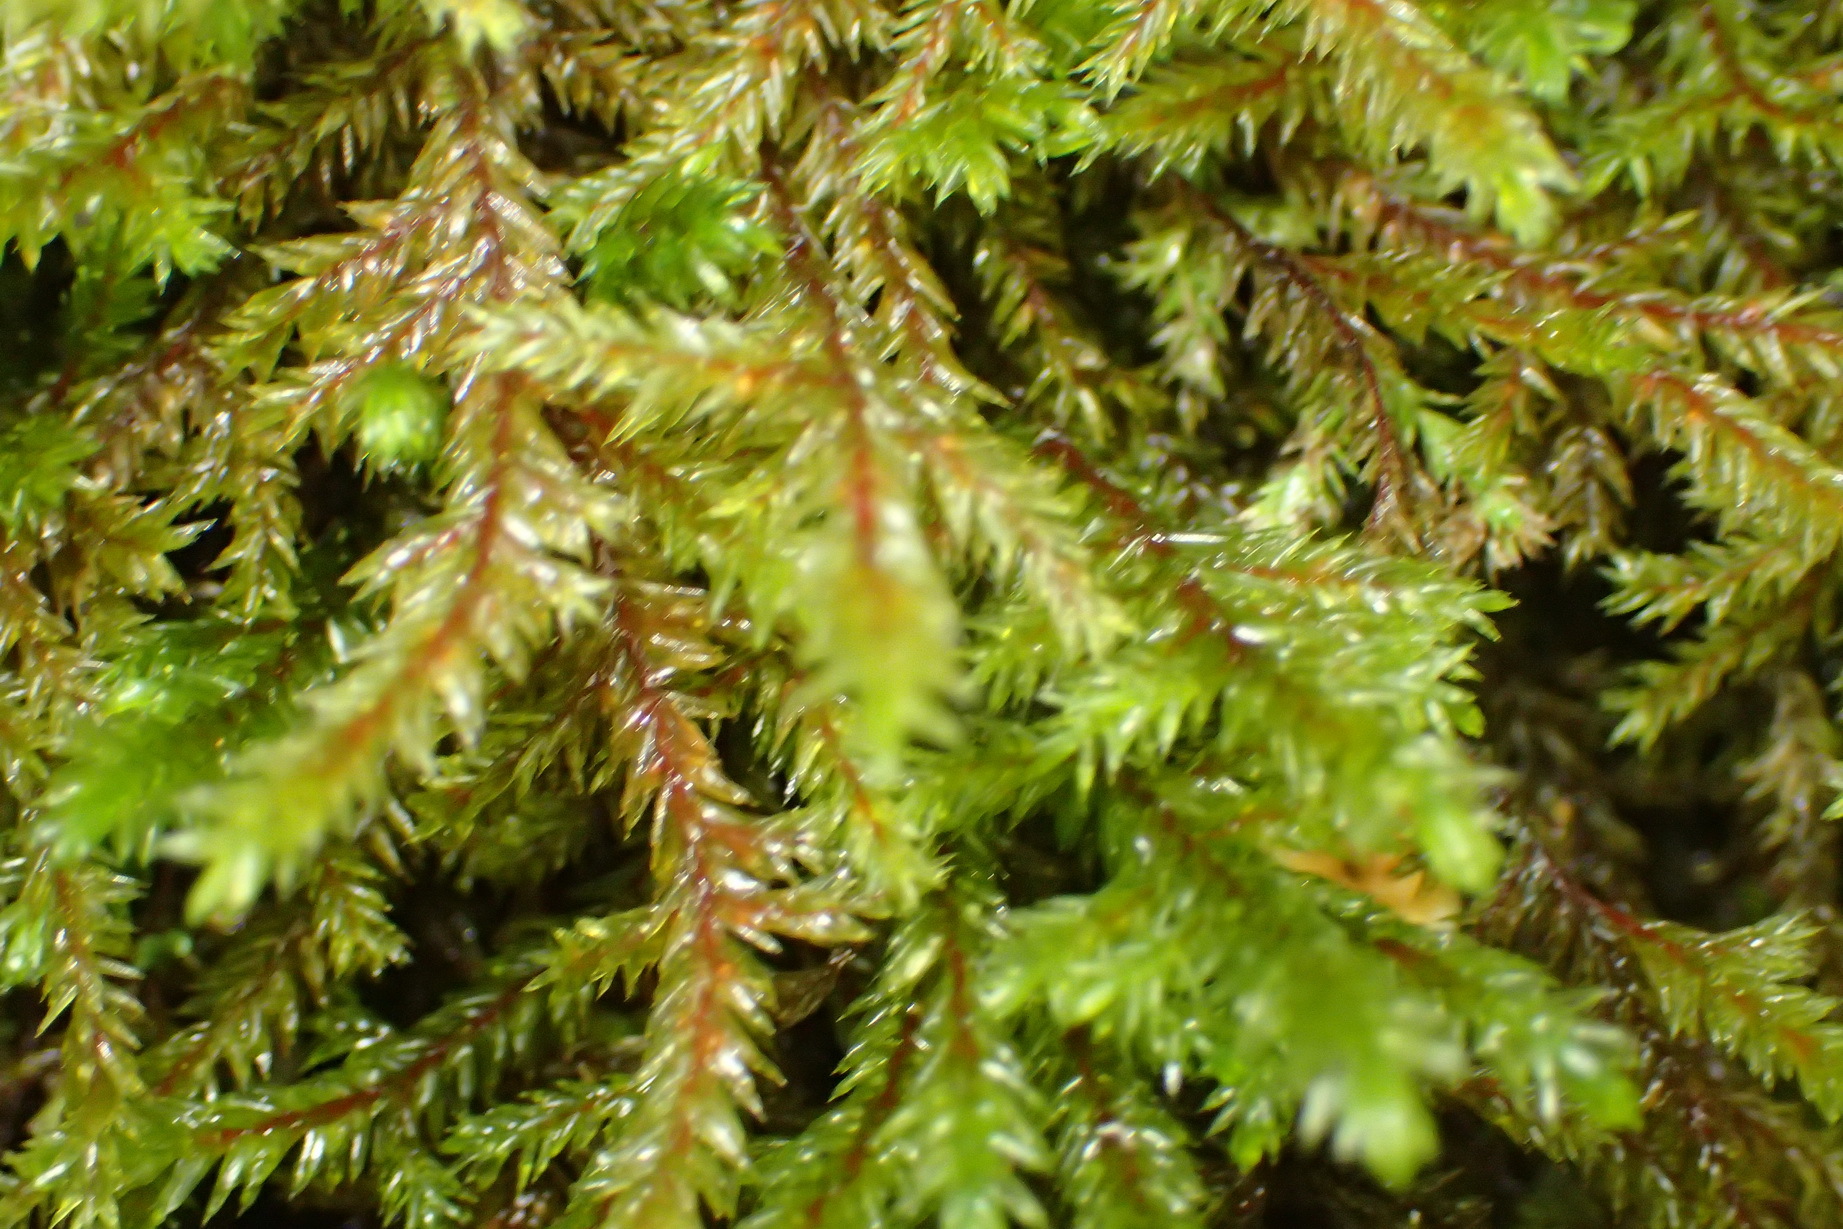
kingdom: Plantae
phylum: Bryophyta
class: Bryopsida
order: Hypnales
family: Pterobryaceae
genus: Pterobryopsis
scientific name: Pterobryopsis hoehnelii
